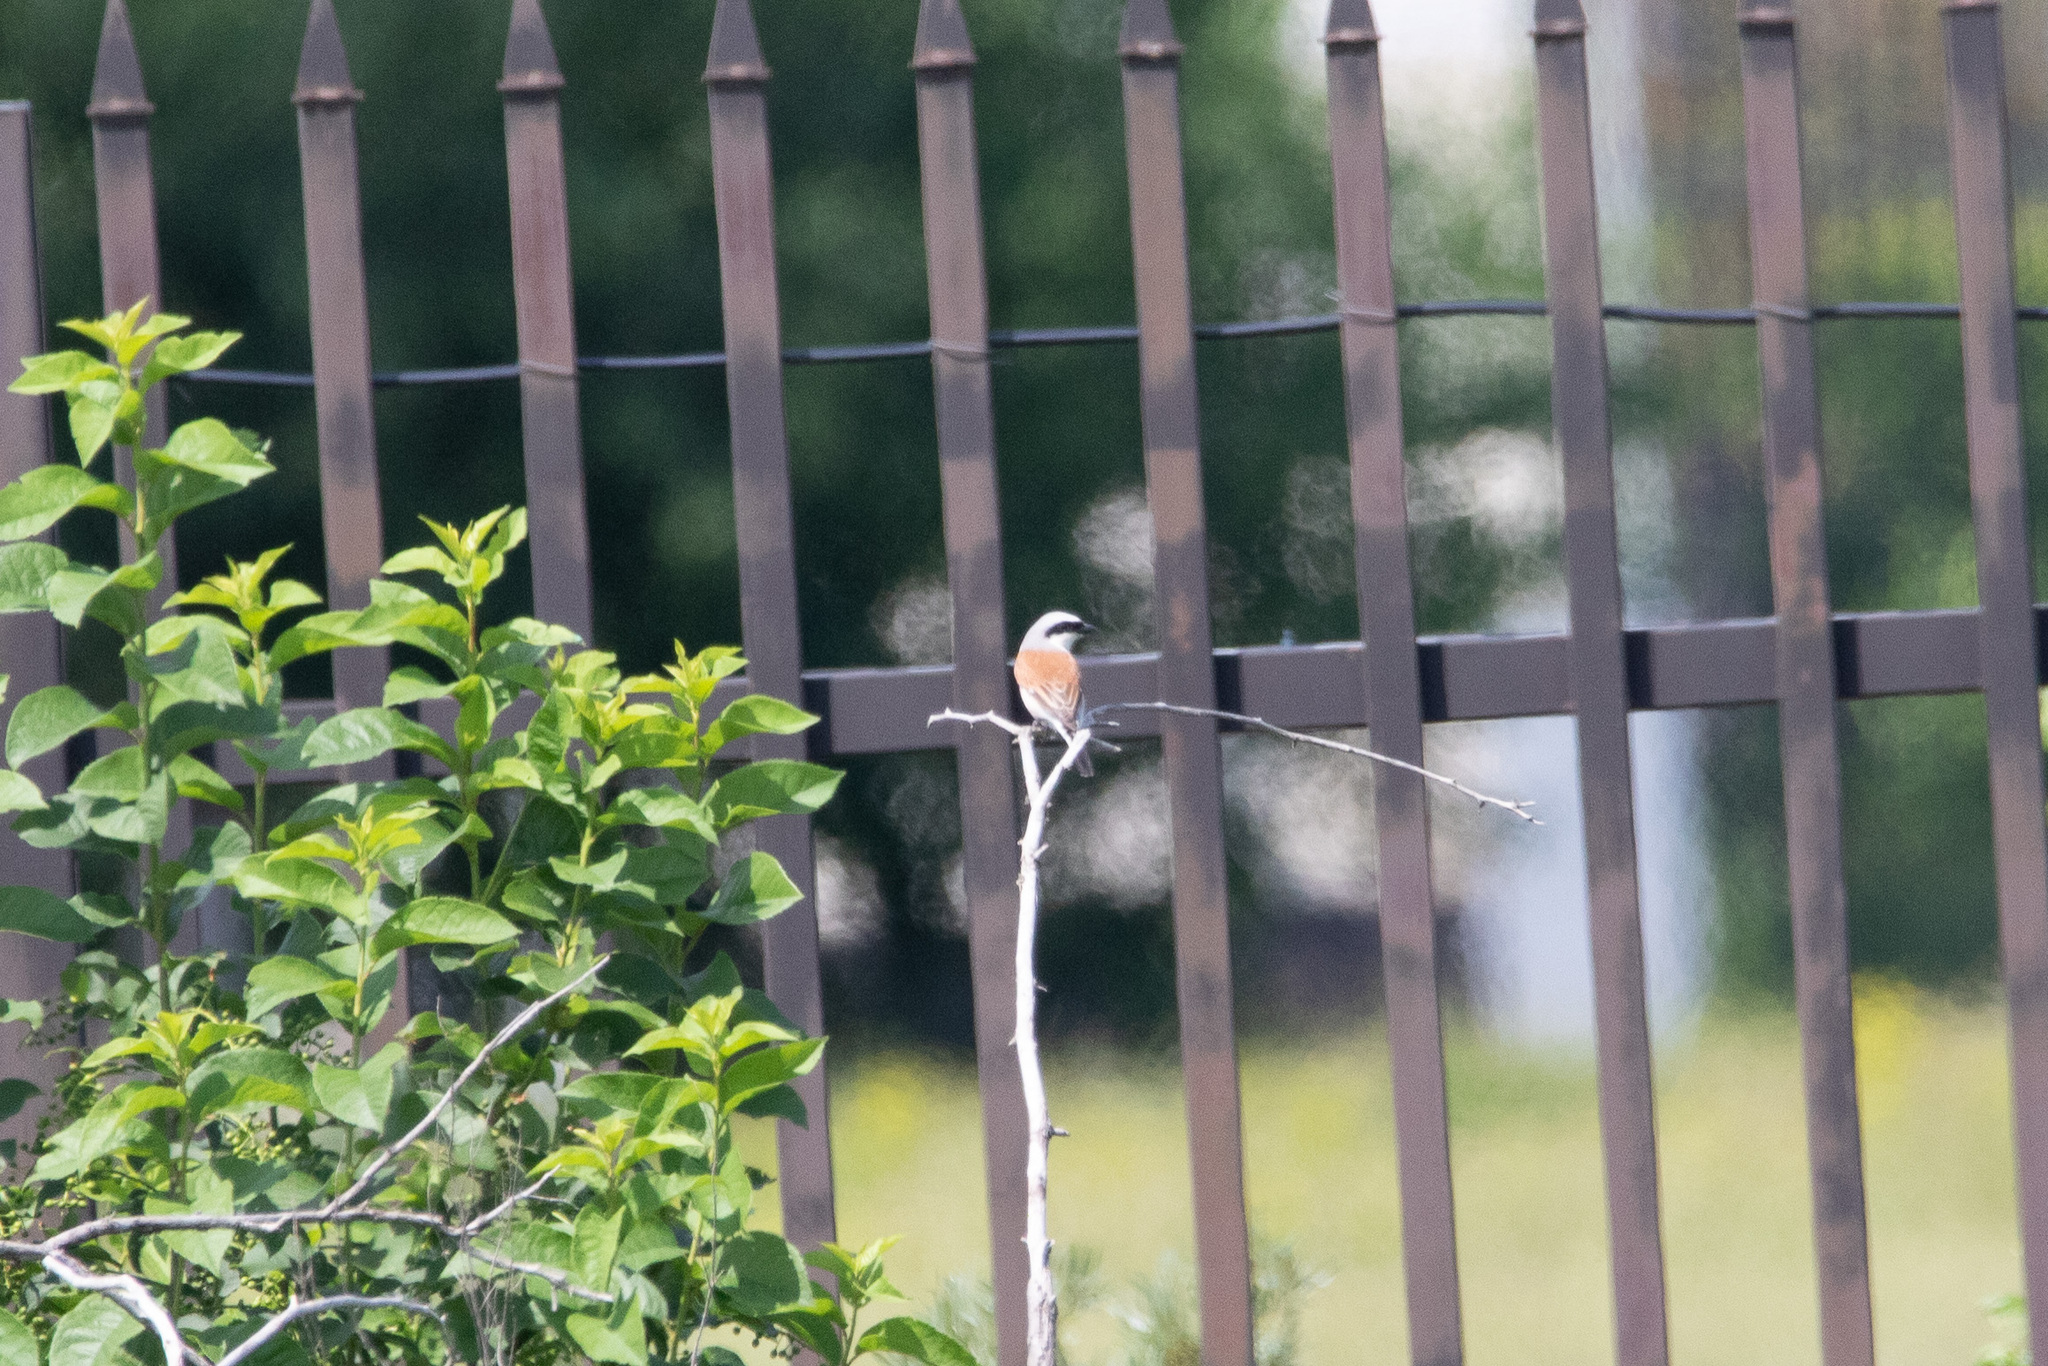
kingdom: Animalia
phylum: Chordata
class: Aves
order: Passeriformes
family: Laniidae
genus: Lanius
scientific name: Lanius collurio
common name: Red-backed shrike
